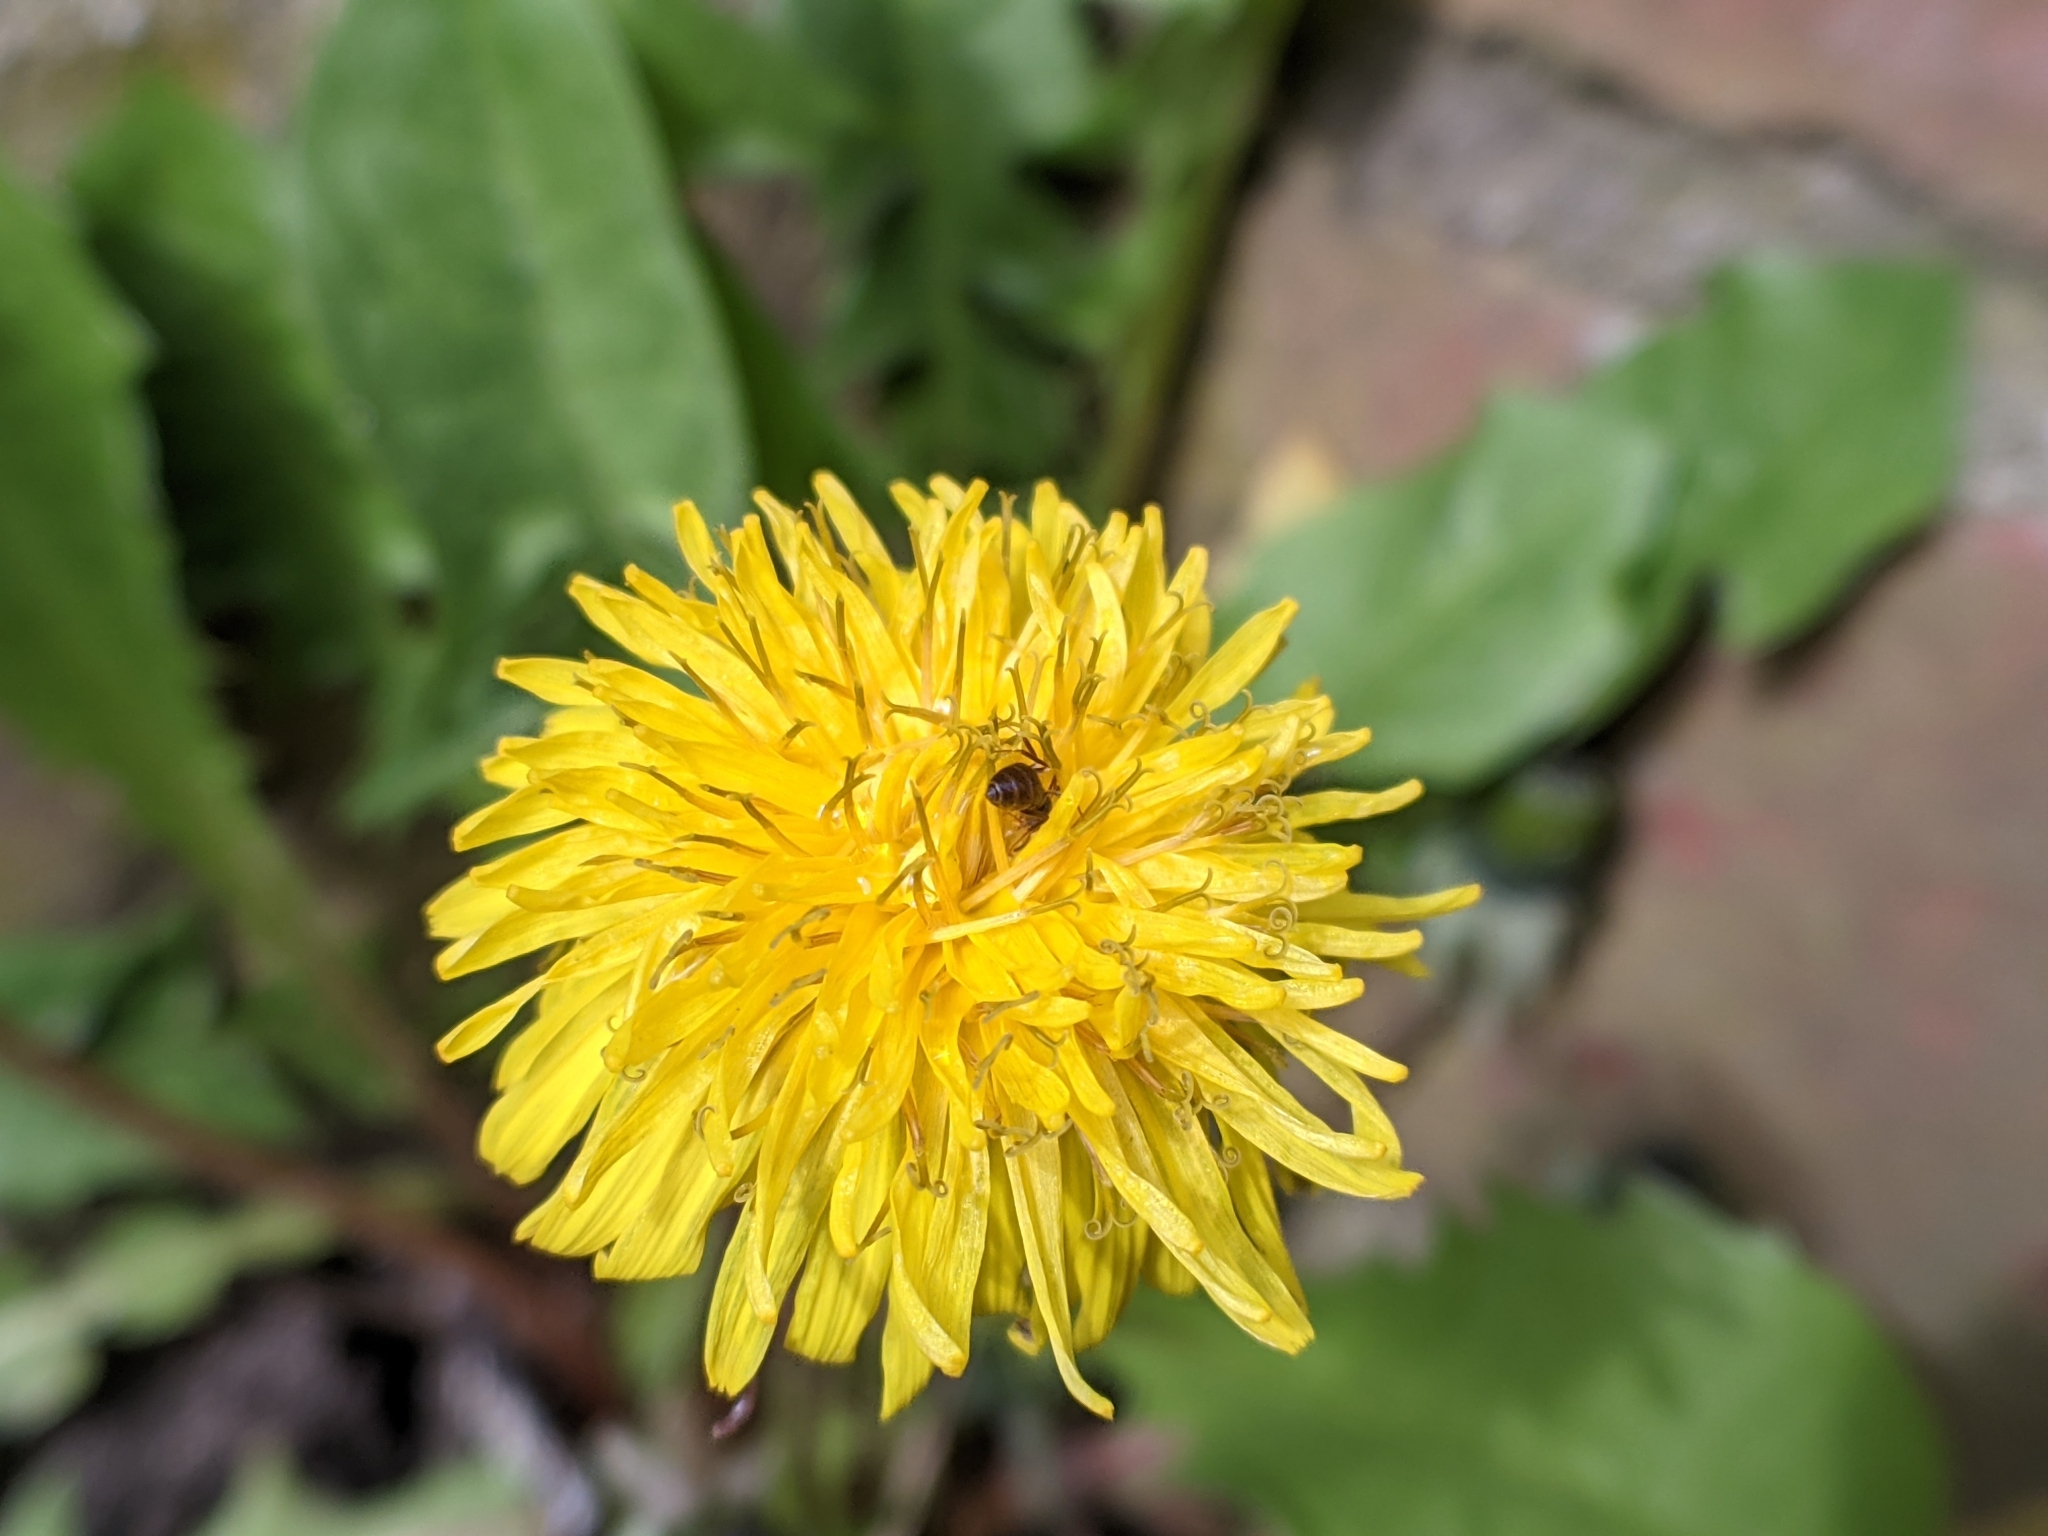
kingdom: Plantae
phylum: Tracheophyta
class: Magnoliopsida
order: Asterales
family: Asteraceae
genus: Taraxacum
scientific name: Taraxacum officinale
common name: Common dandelion
